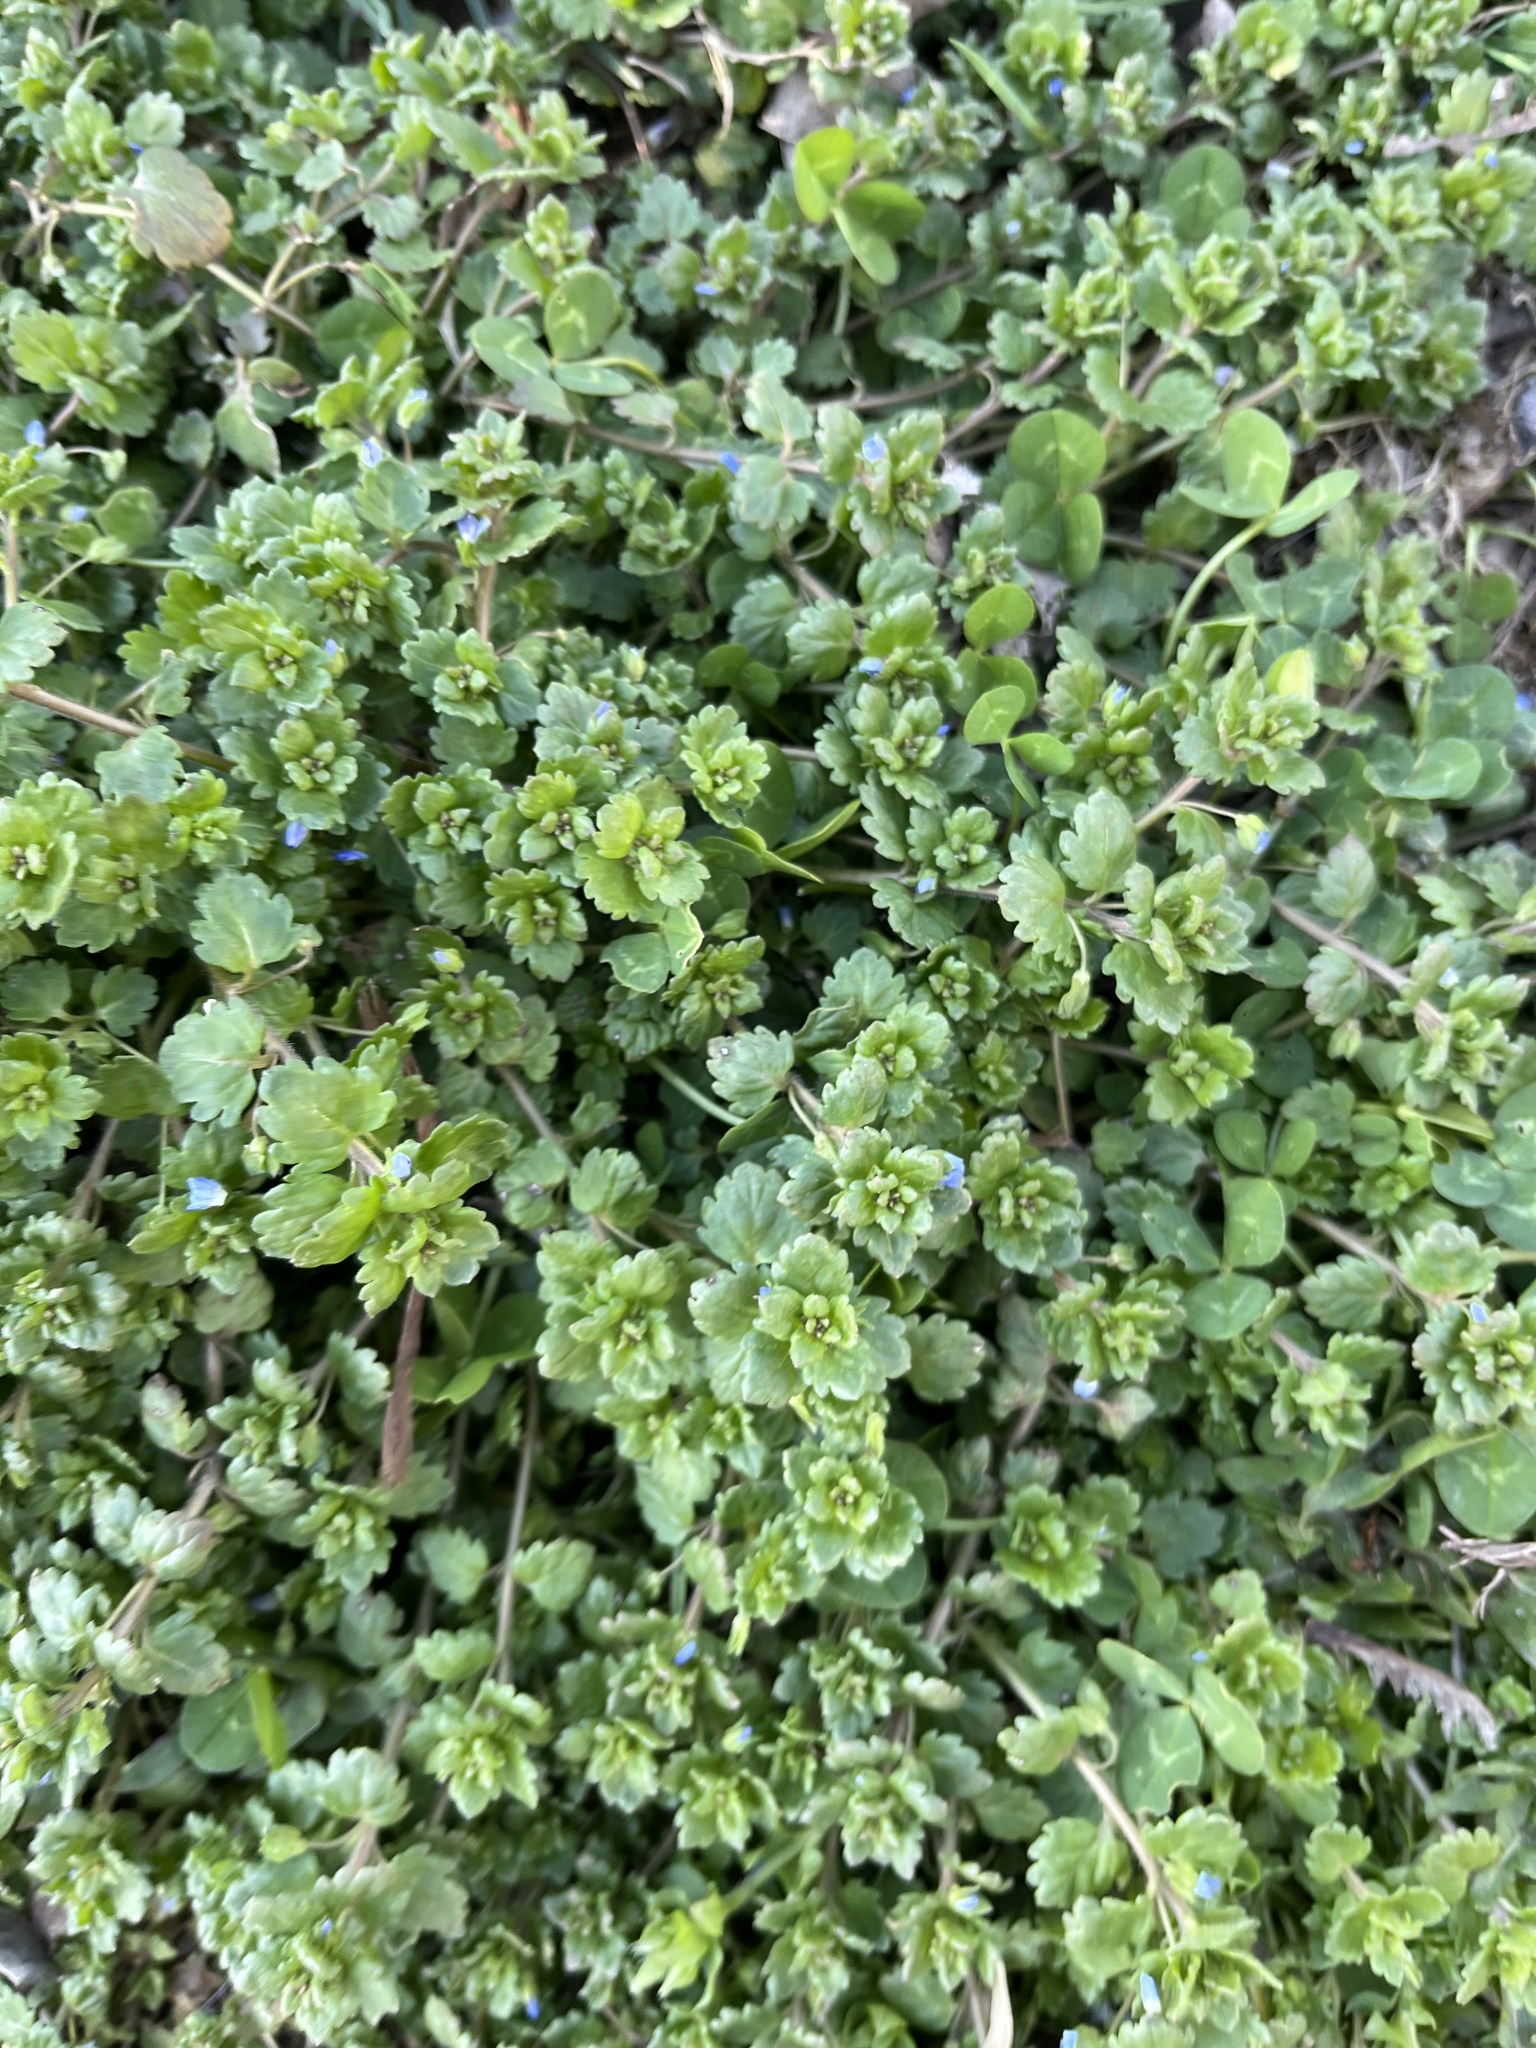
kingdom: Plantae
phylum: Tracheophyta
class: Magnoliopsida
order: Lamiales
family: Plantaginaceae
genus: Veronica
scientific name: Veronica polita
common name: Grey field-speedwell
